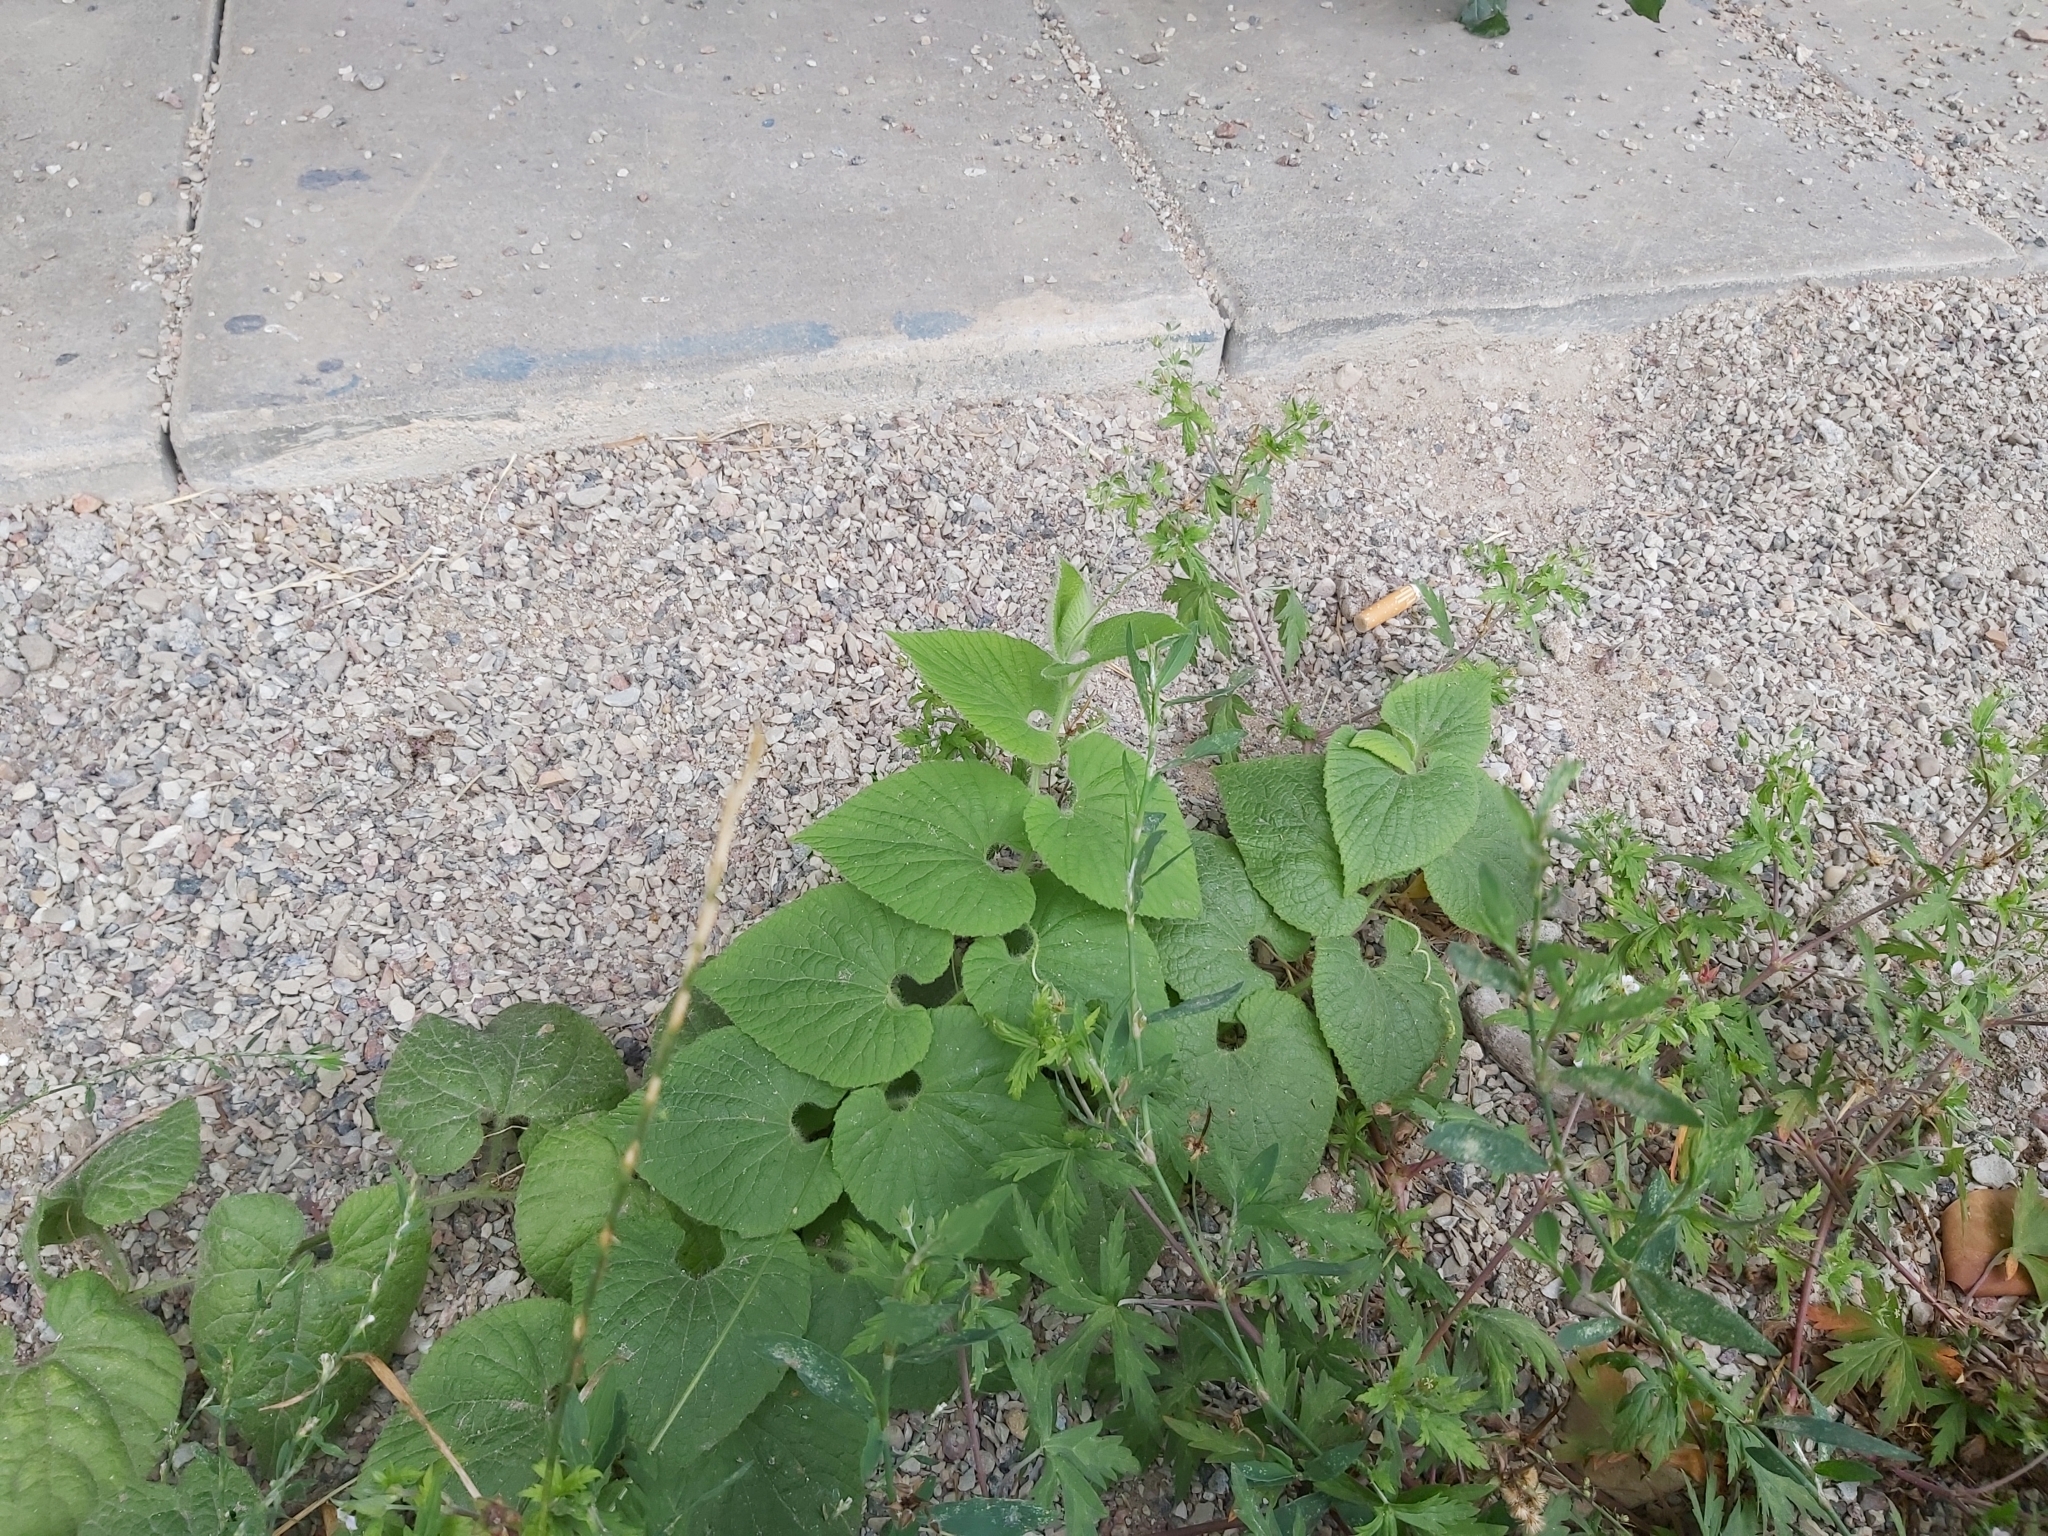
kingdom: Plantae
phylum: Tracheophyta
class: Magnoliopsida
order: Cucurbitales
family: Cucurbitaceae
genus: Thladiantha
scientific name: Thladiantha dubia
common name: Manchu tubergourd
